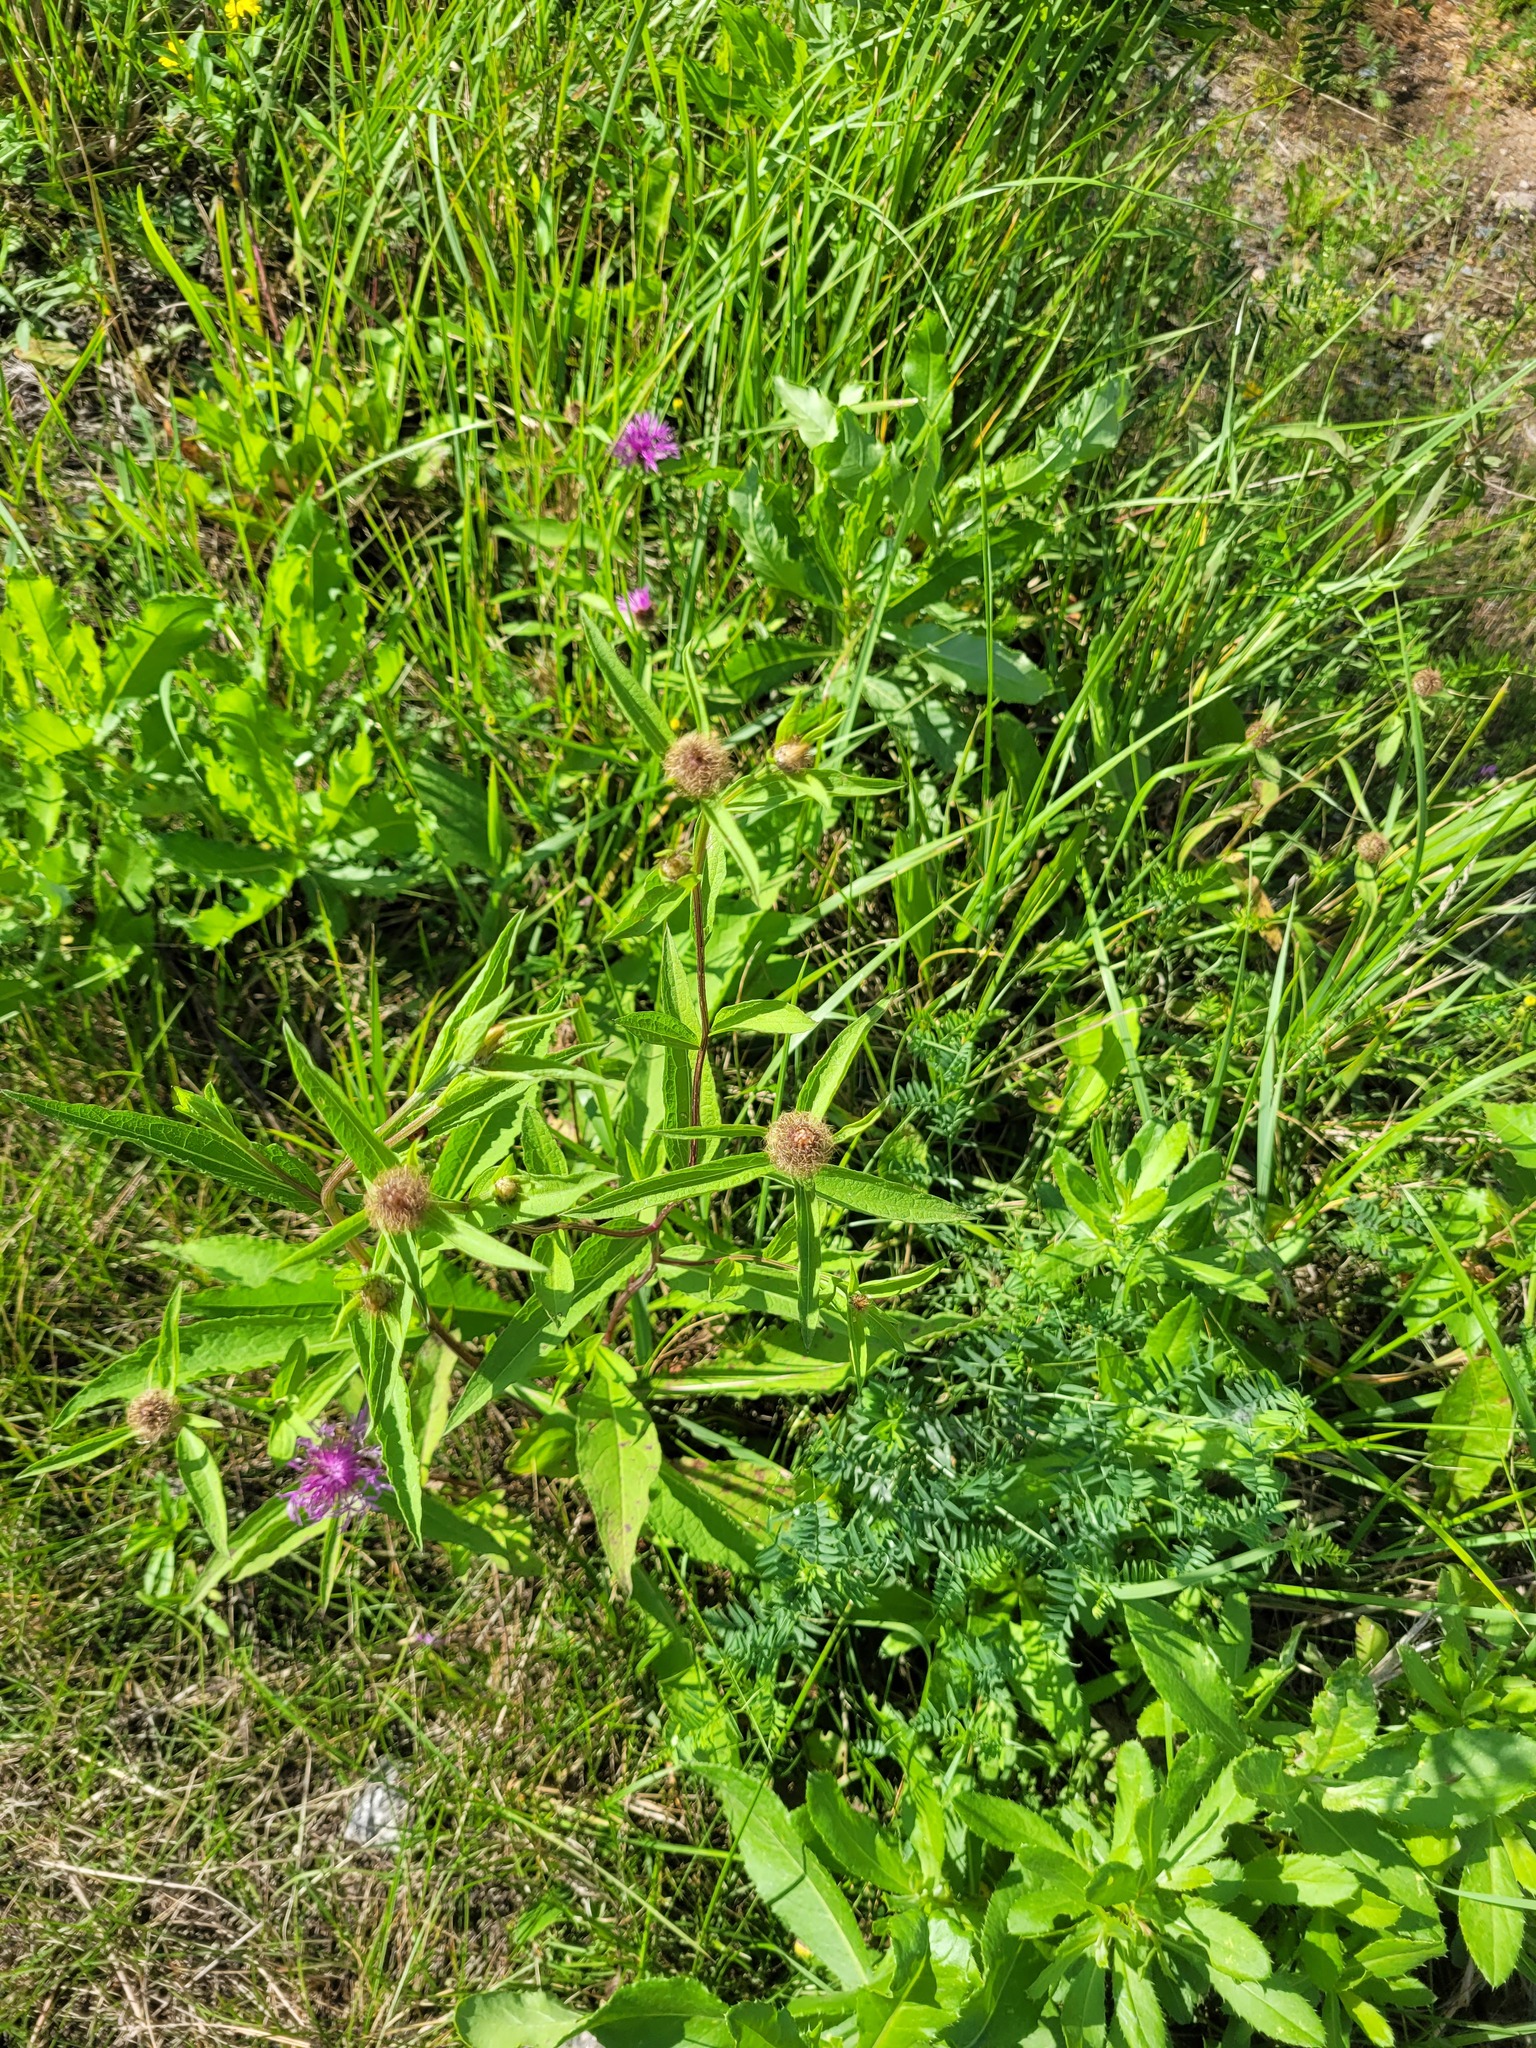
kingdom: Plantae
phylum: Tracheophyta
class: Magnoliopsida
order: Asterales
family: Asteraceae
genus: Centaurea
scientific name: Centaurea pseudophrygia
